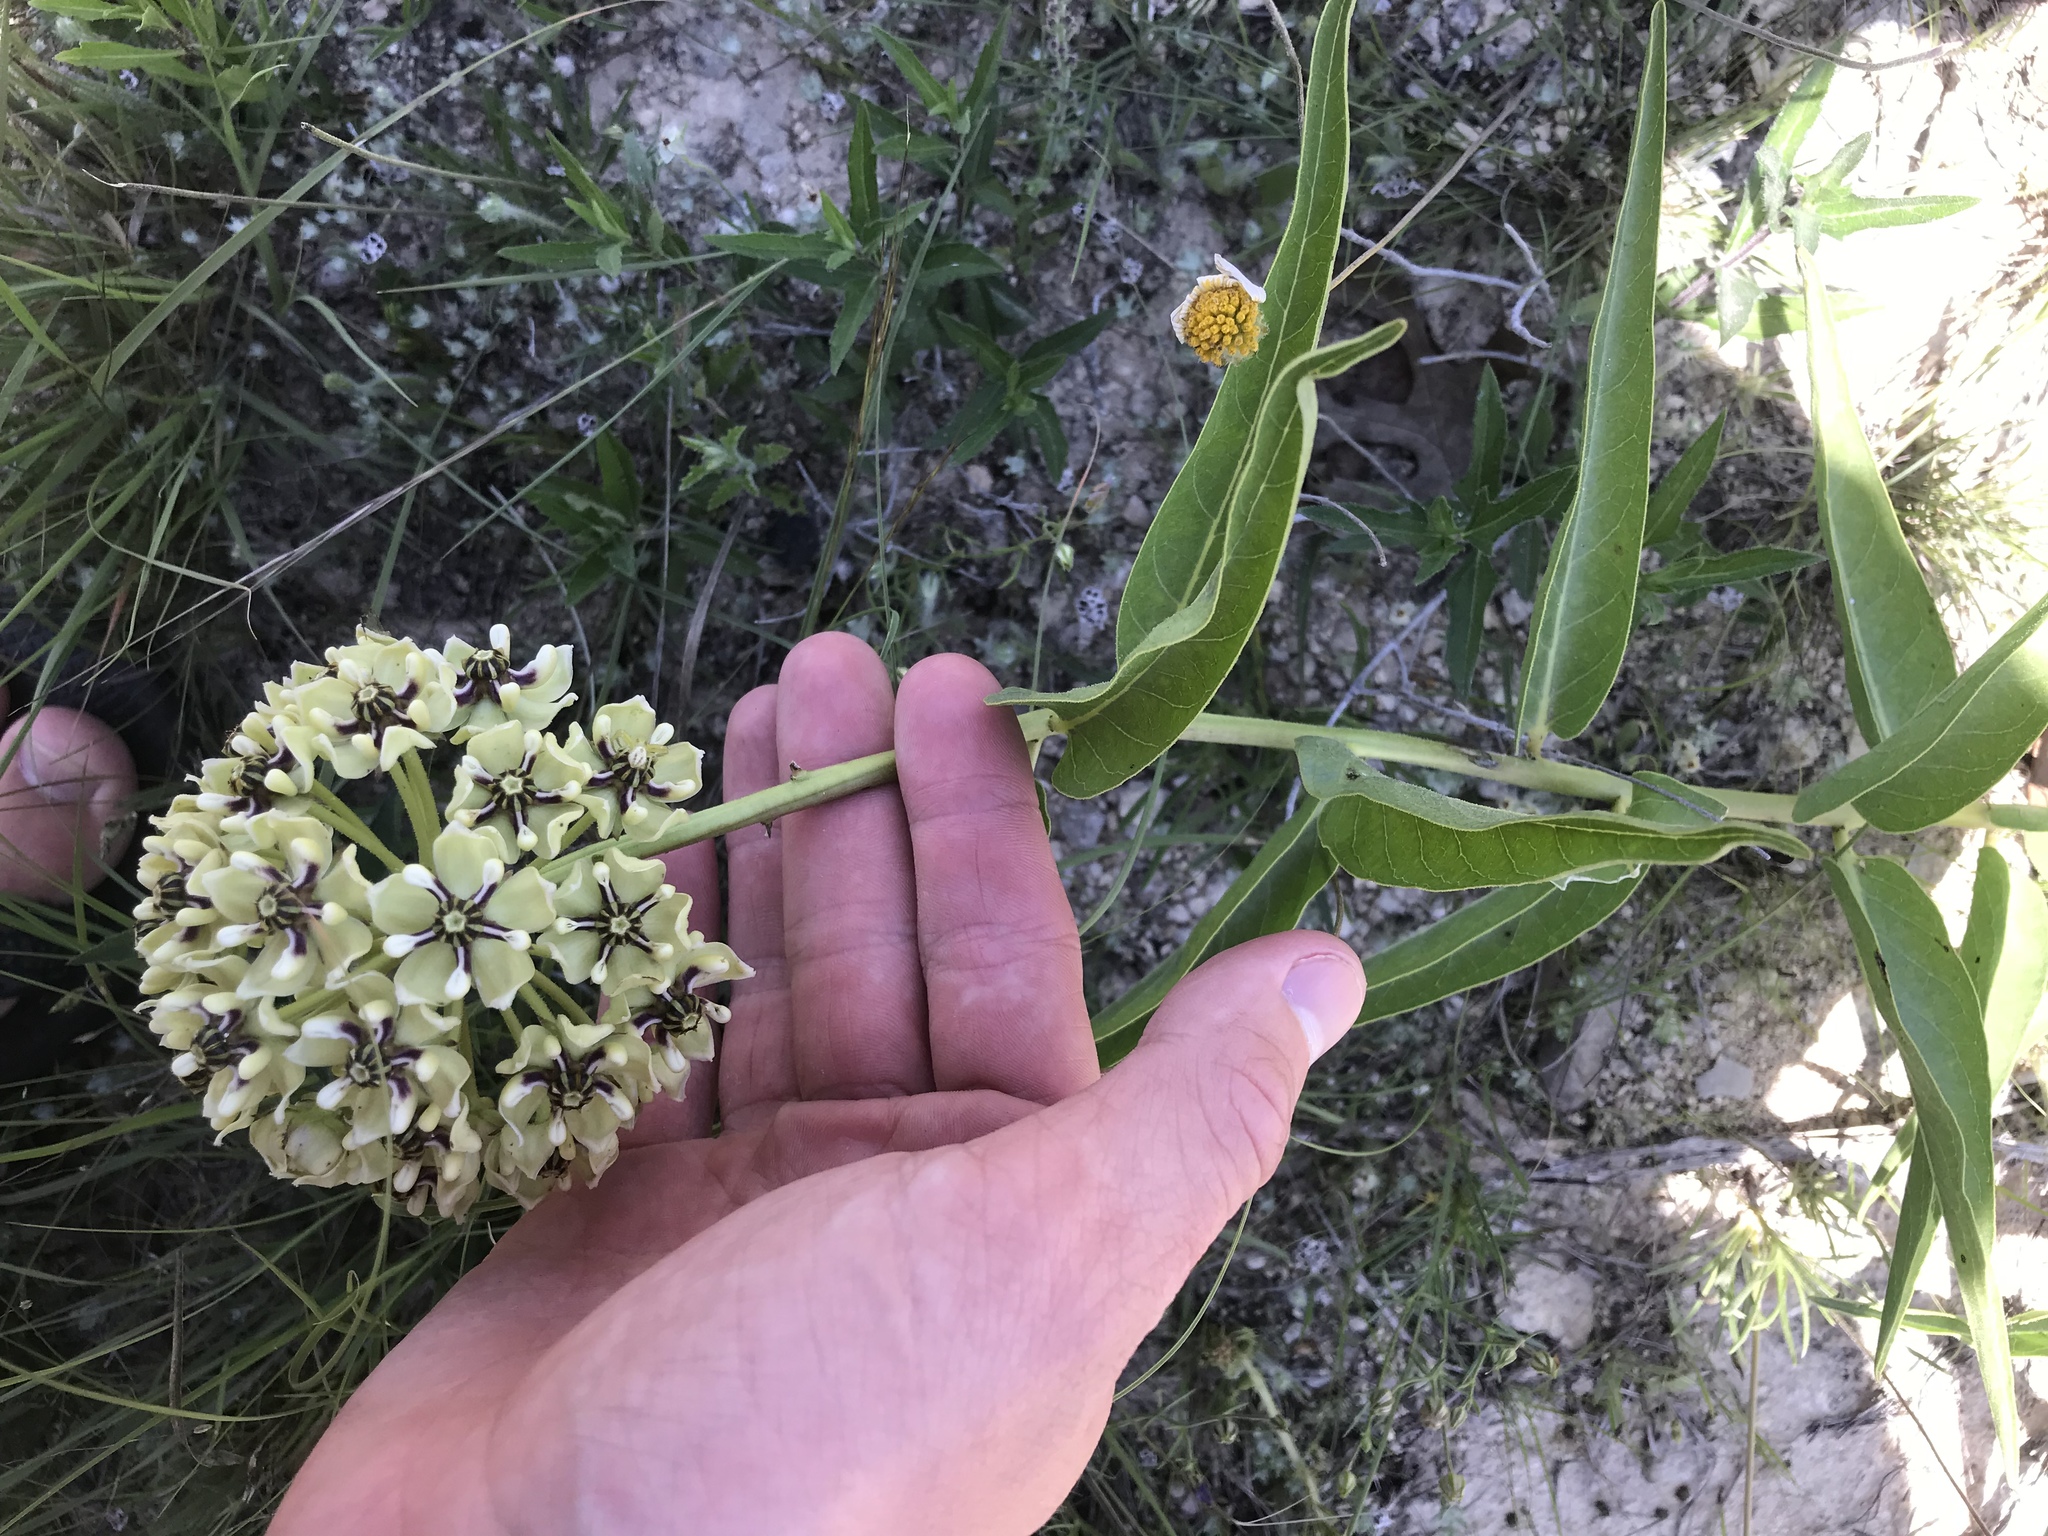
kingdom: Plantae
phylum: Tracheophyta
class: Magnoliopsida
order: Gentianales
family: Apocynaceae
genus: Asclepias
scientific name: Asclepias asperula
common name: Antelope horns
